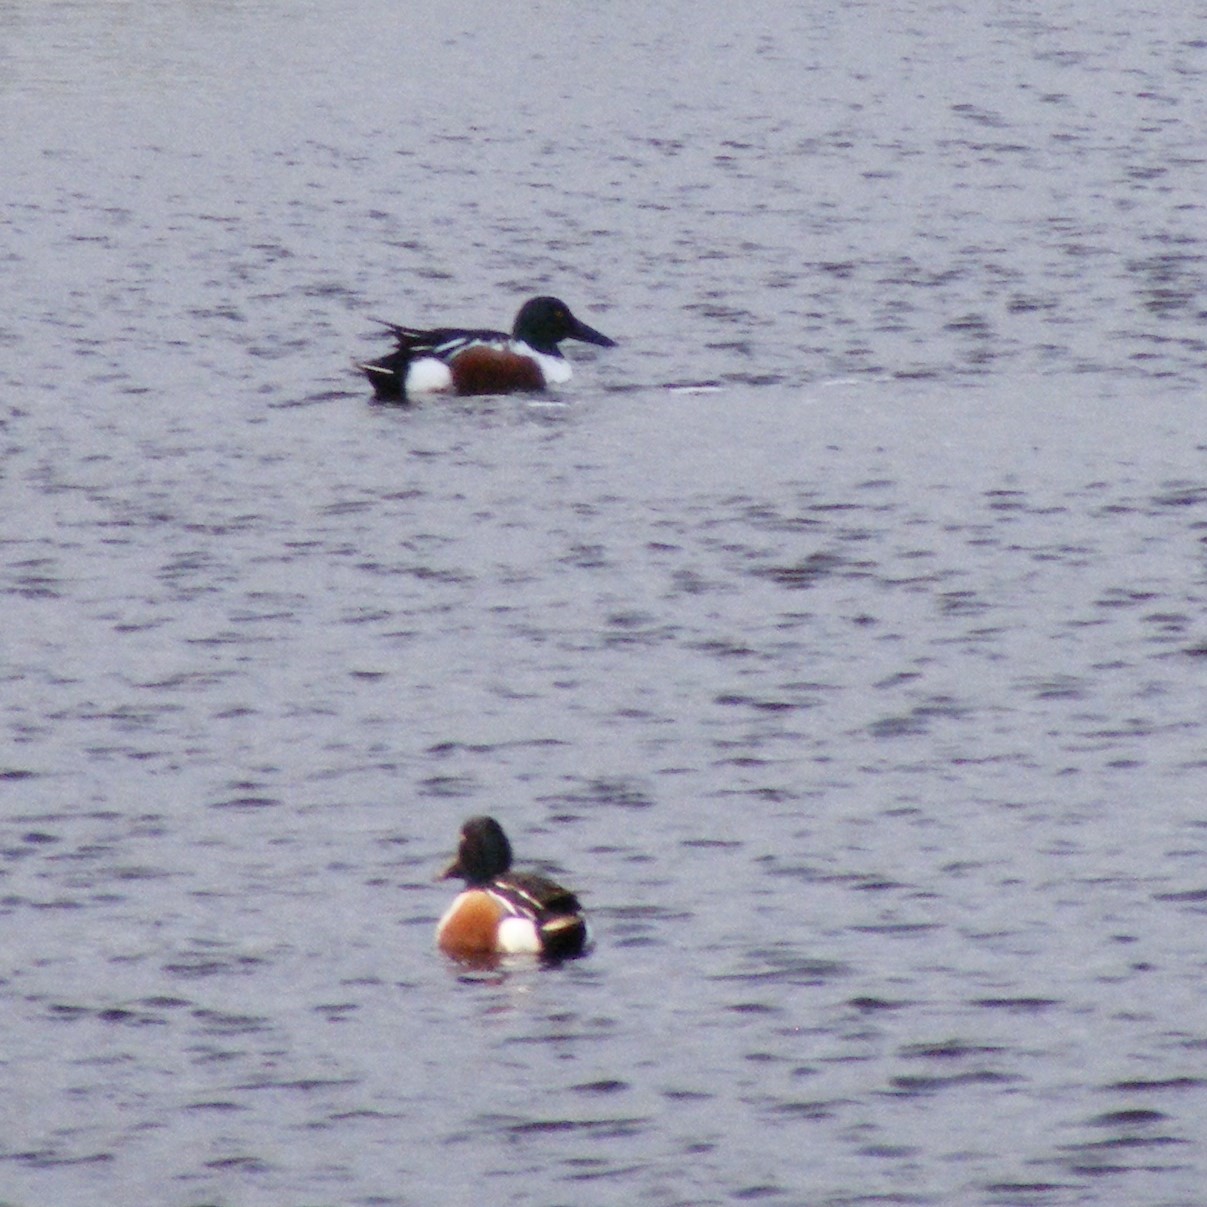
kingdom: Animalia
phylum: Chordata
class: Aves
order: Anseriformes
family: Anatidae
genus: Spatula
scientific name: Spatula clypeata
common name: Northern shoveler
